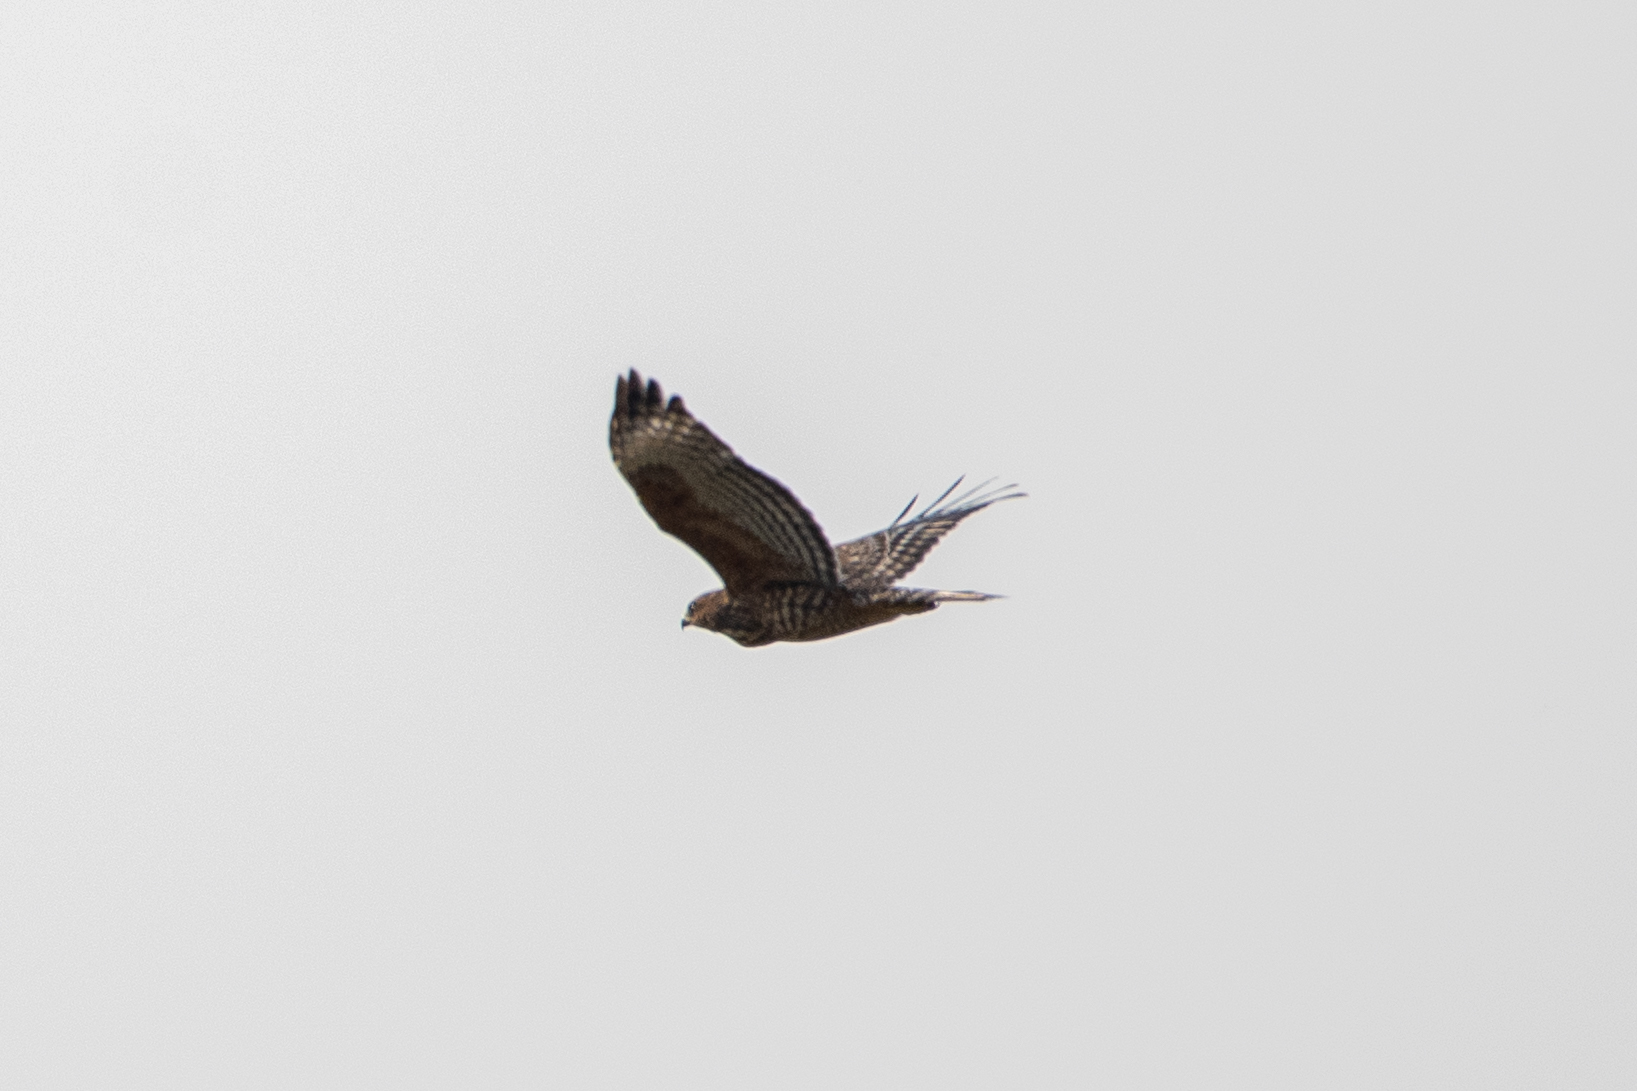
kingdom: Animalia
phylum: Chordata
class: Aves
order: Accipitriformes
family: Accipitridae
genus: Buteo
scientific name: Buteo lineatus
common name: Red-shouldered hawk
